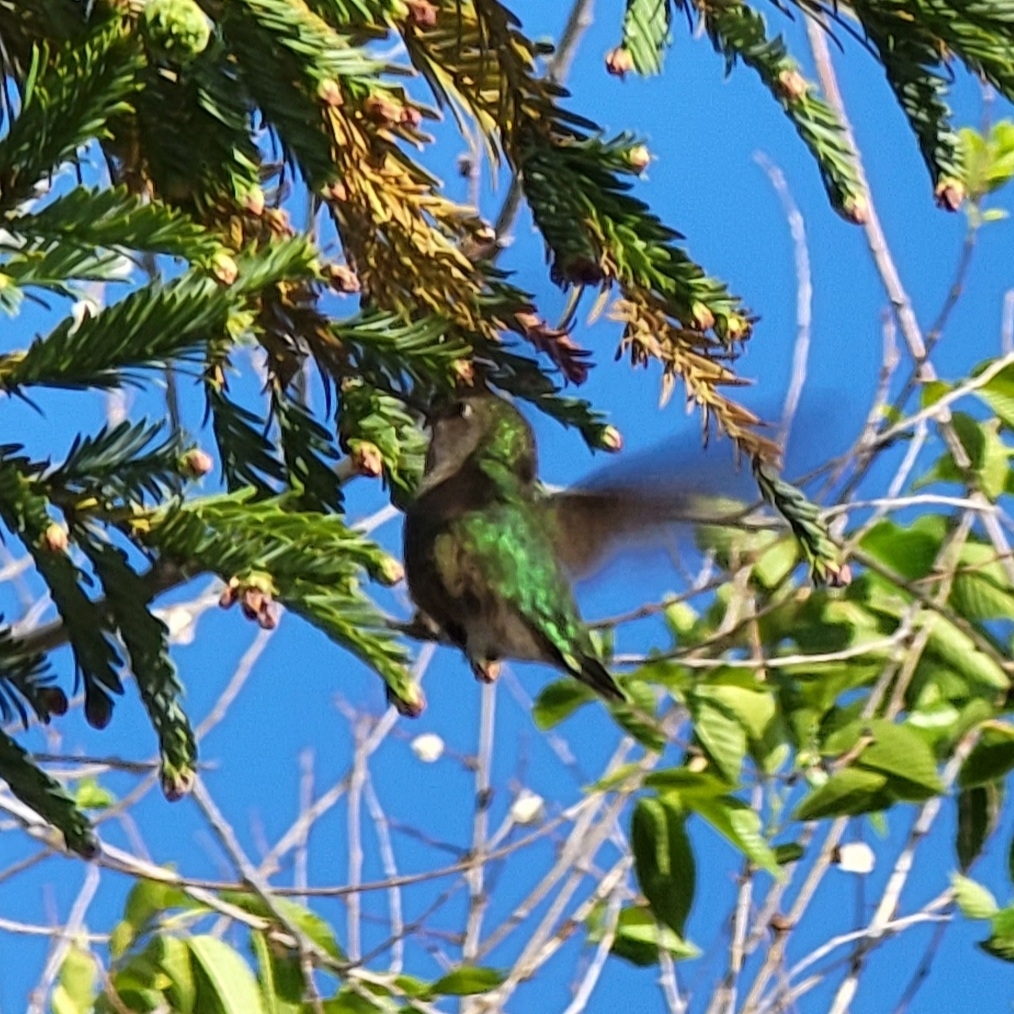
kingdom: Animalia
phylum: Chordata
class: Aves
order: Apodiformes
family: Trochilidae
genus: Calypte
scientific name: Calypte anna
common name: Anna's hummingbird
